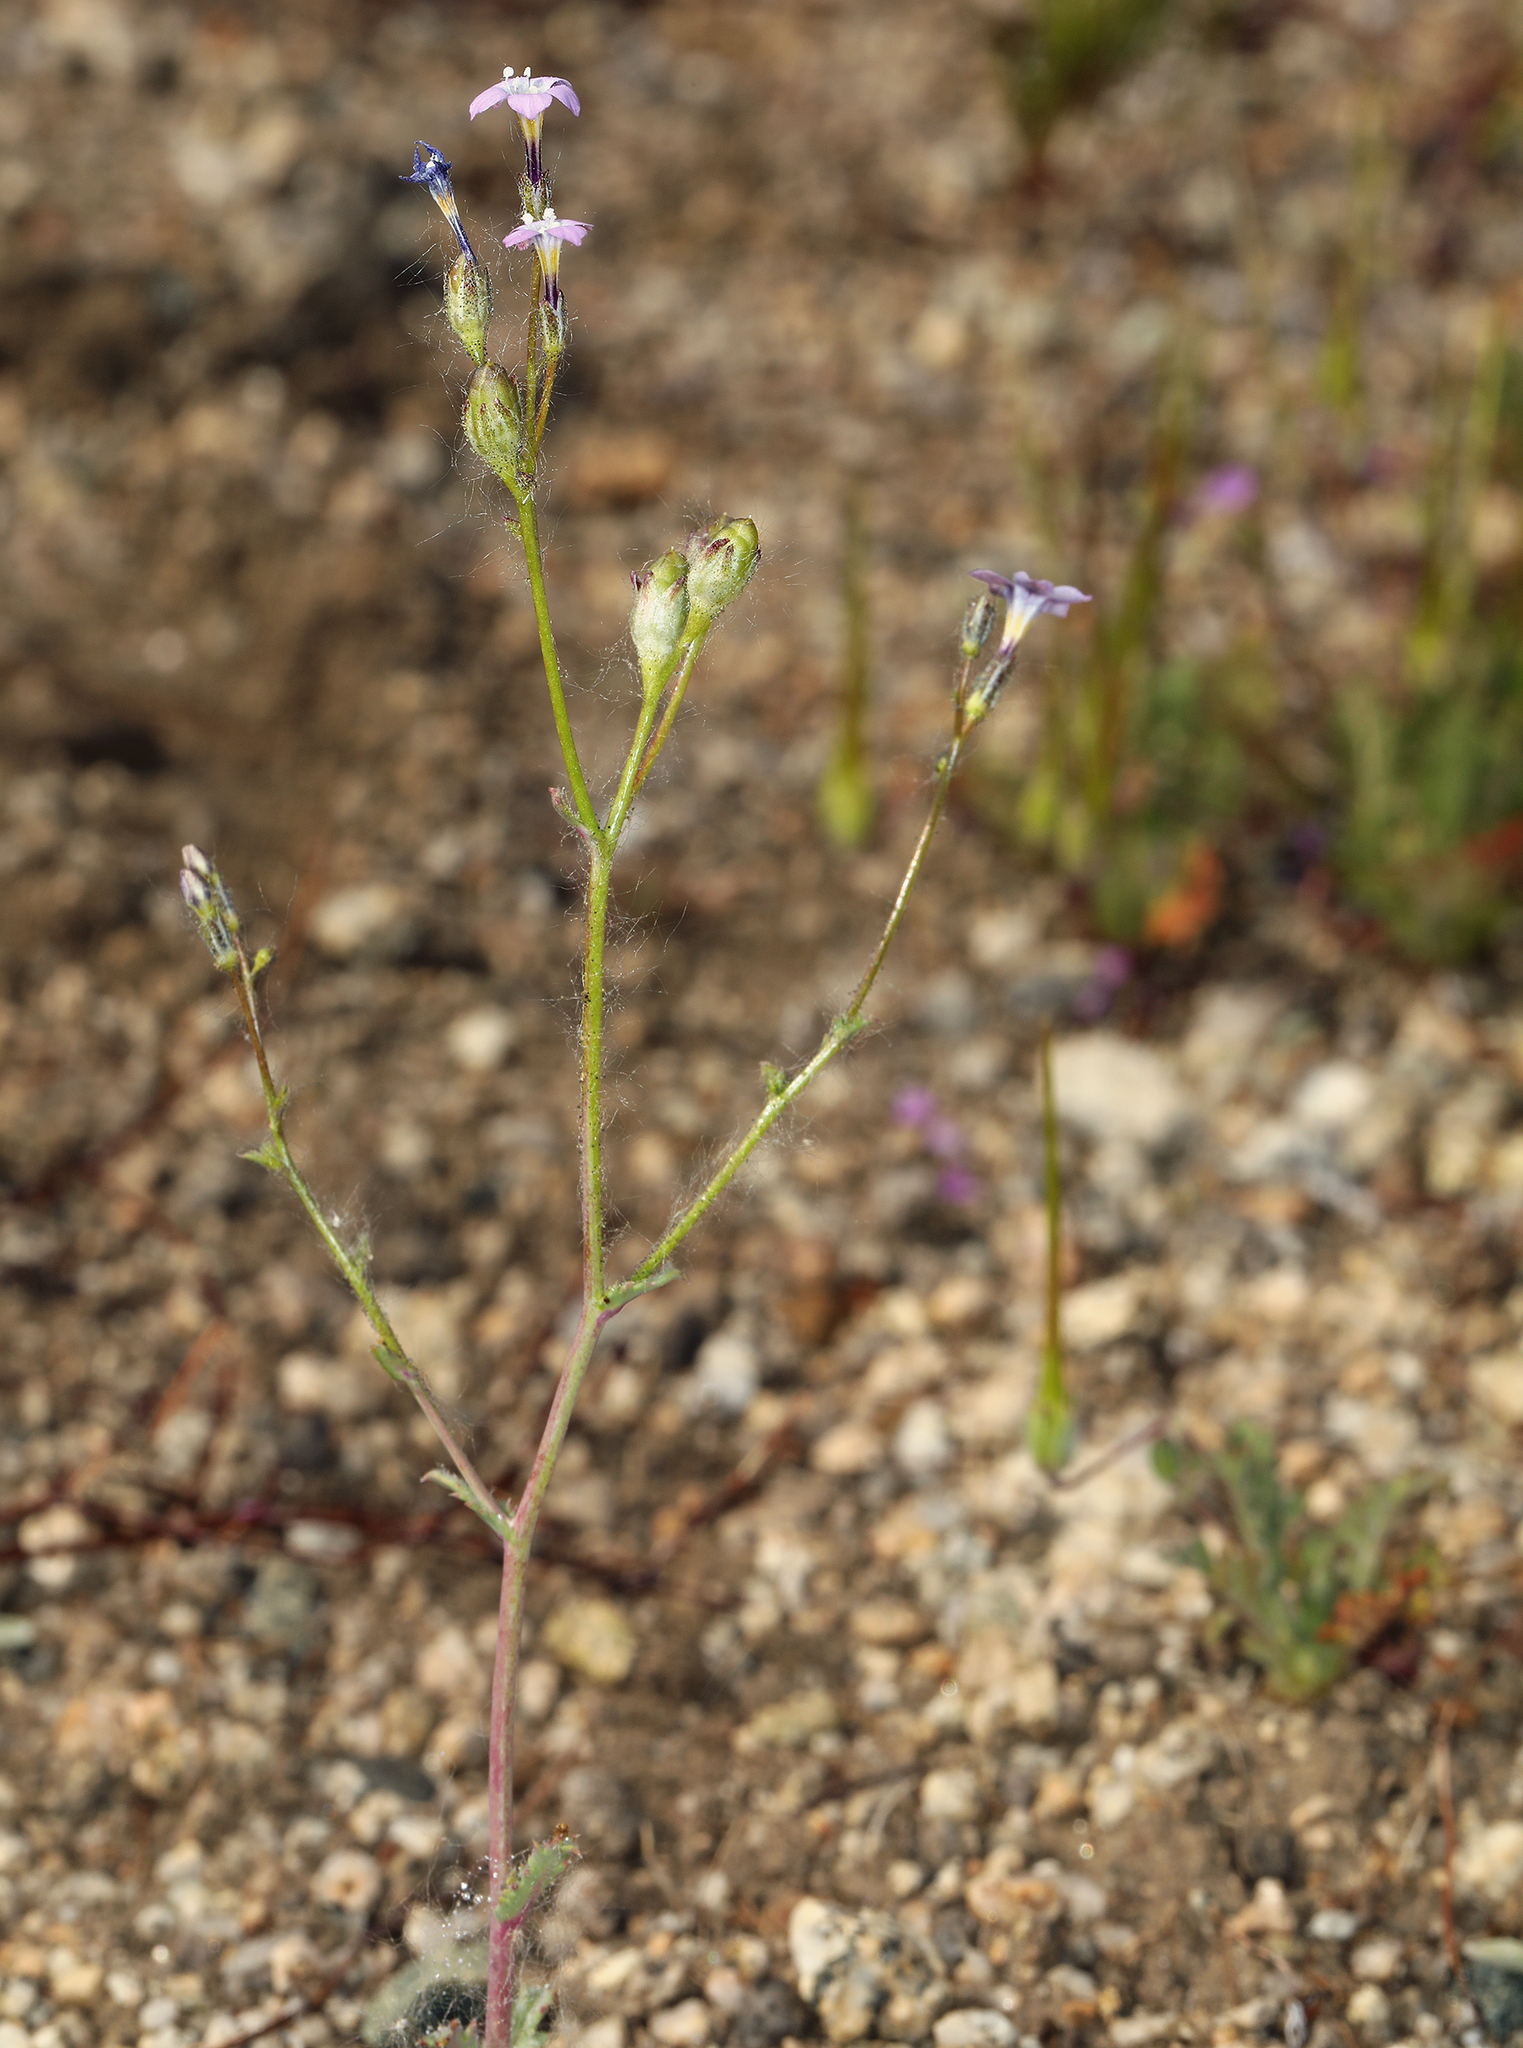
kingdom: Plantae
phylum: Tracheophyta
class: Magnoliopsida
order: Ericales
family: Polemoniaceae
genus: Gilia
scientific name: Gilia sinuata
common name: Rosy gilia
